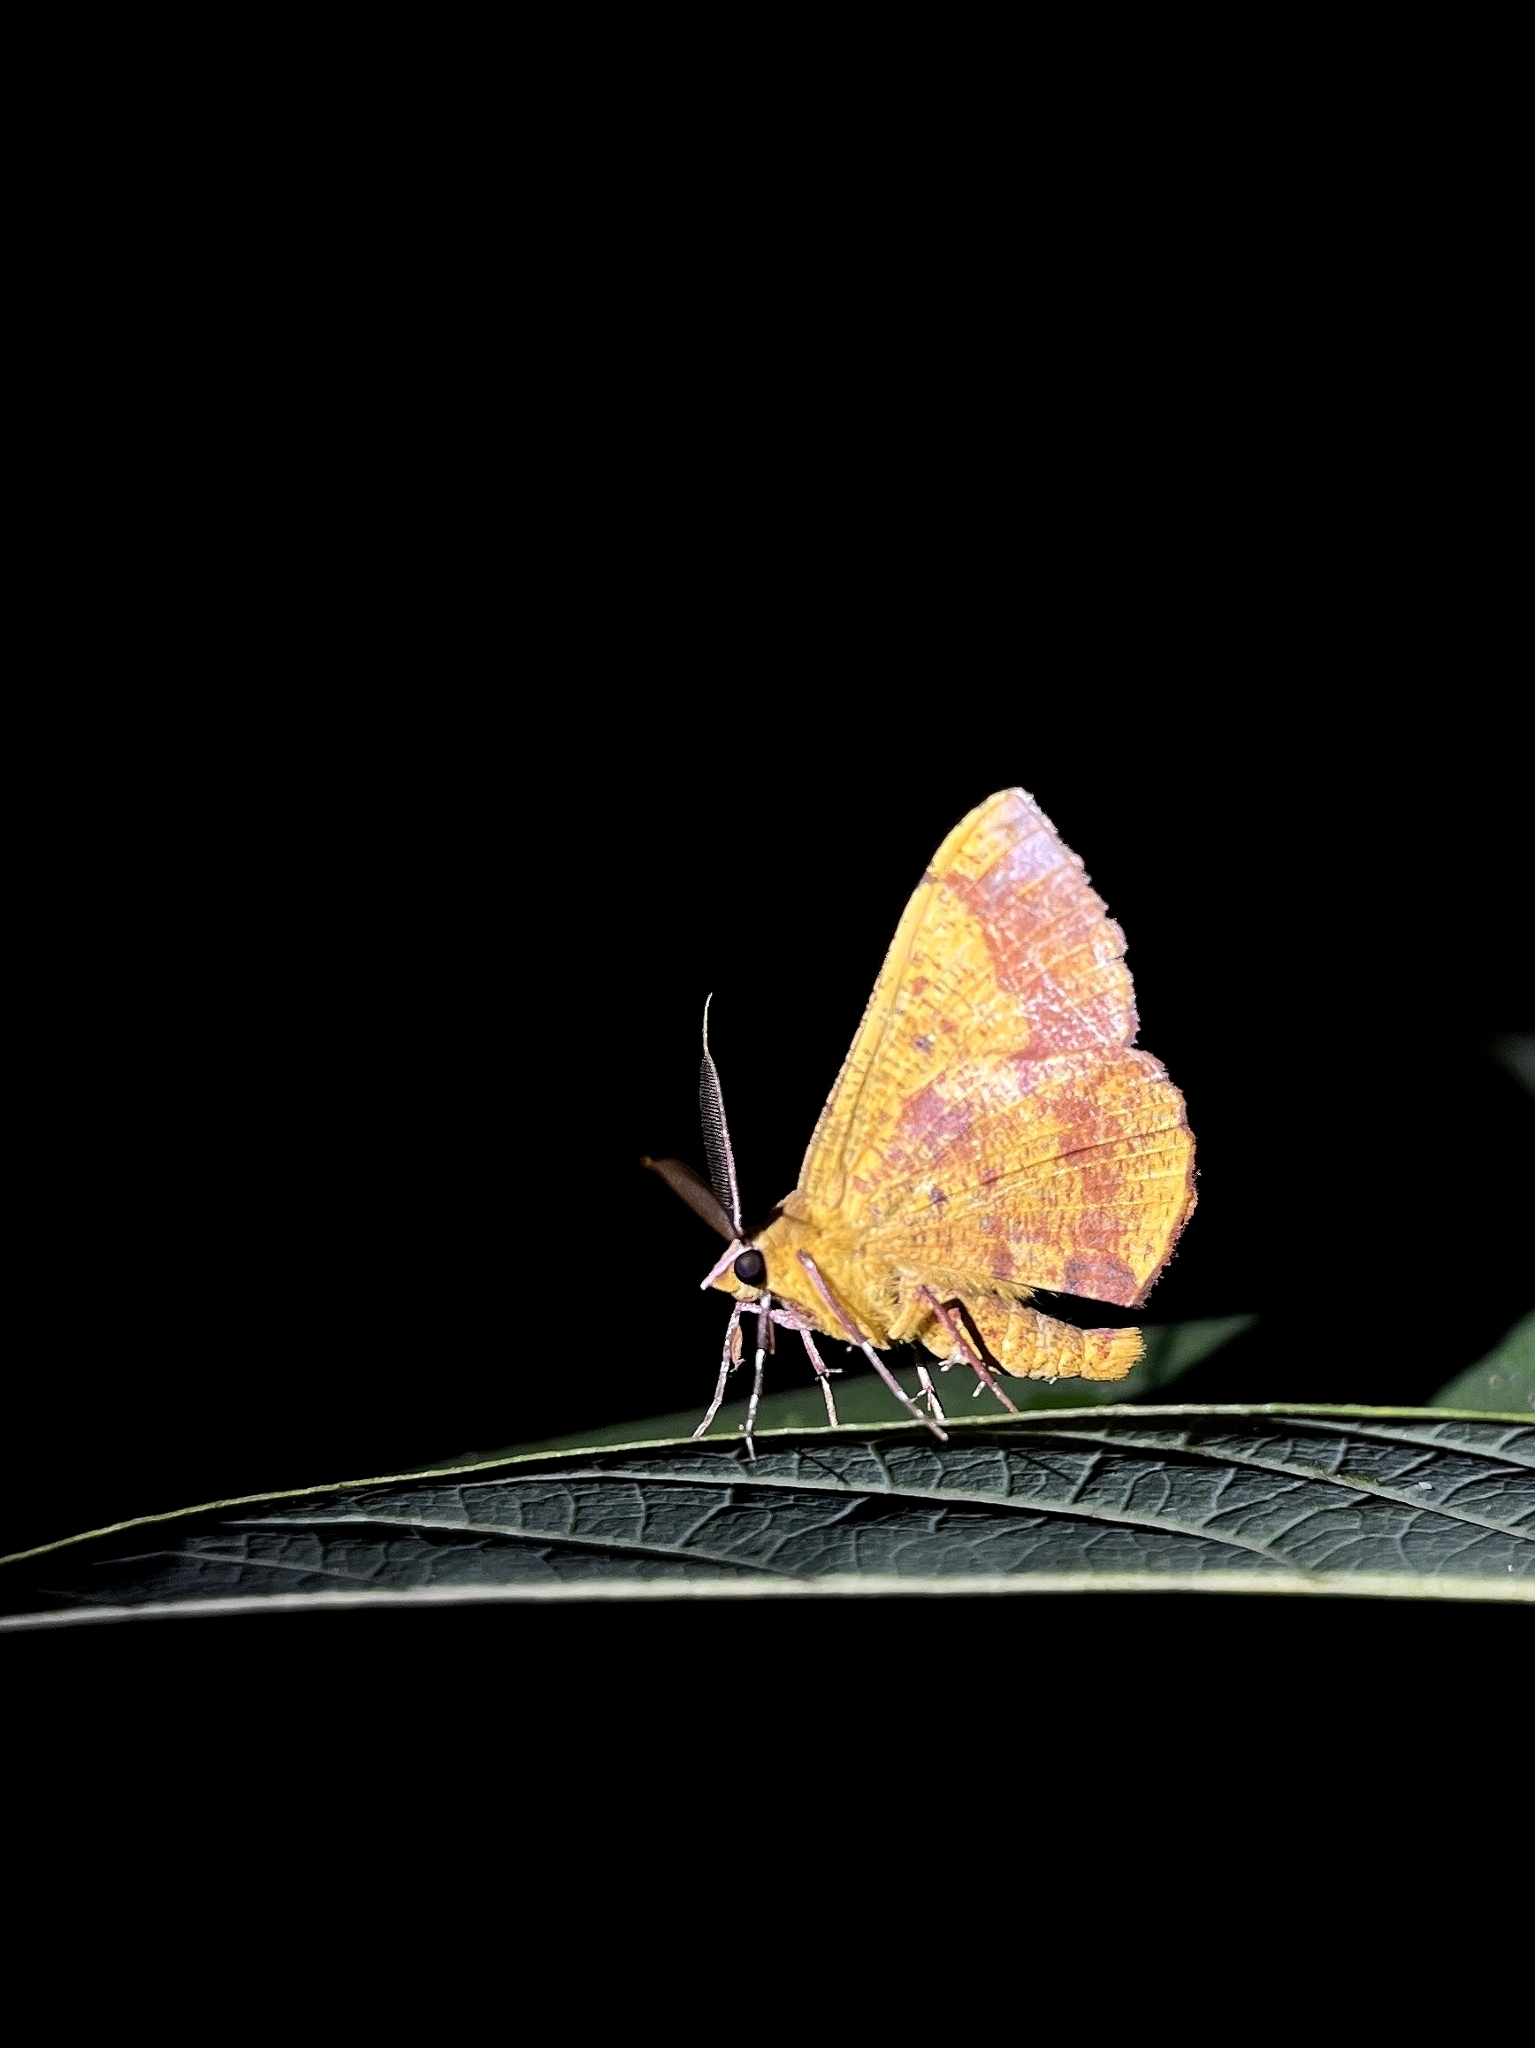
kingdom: Animalia
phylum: Arthropoda
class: Insecta
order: Lepidoptera
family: Geometridae
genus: Hyperythra
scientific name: Hyperythra lutea
